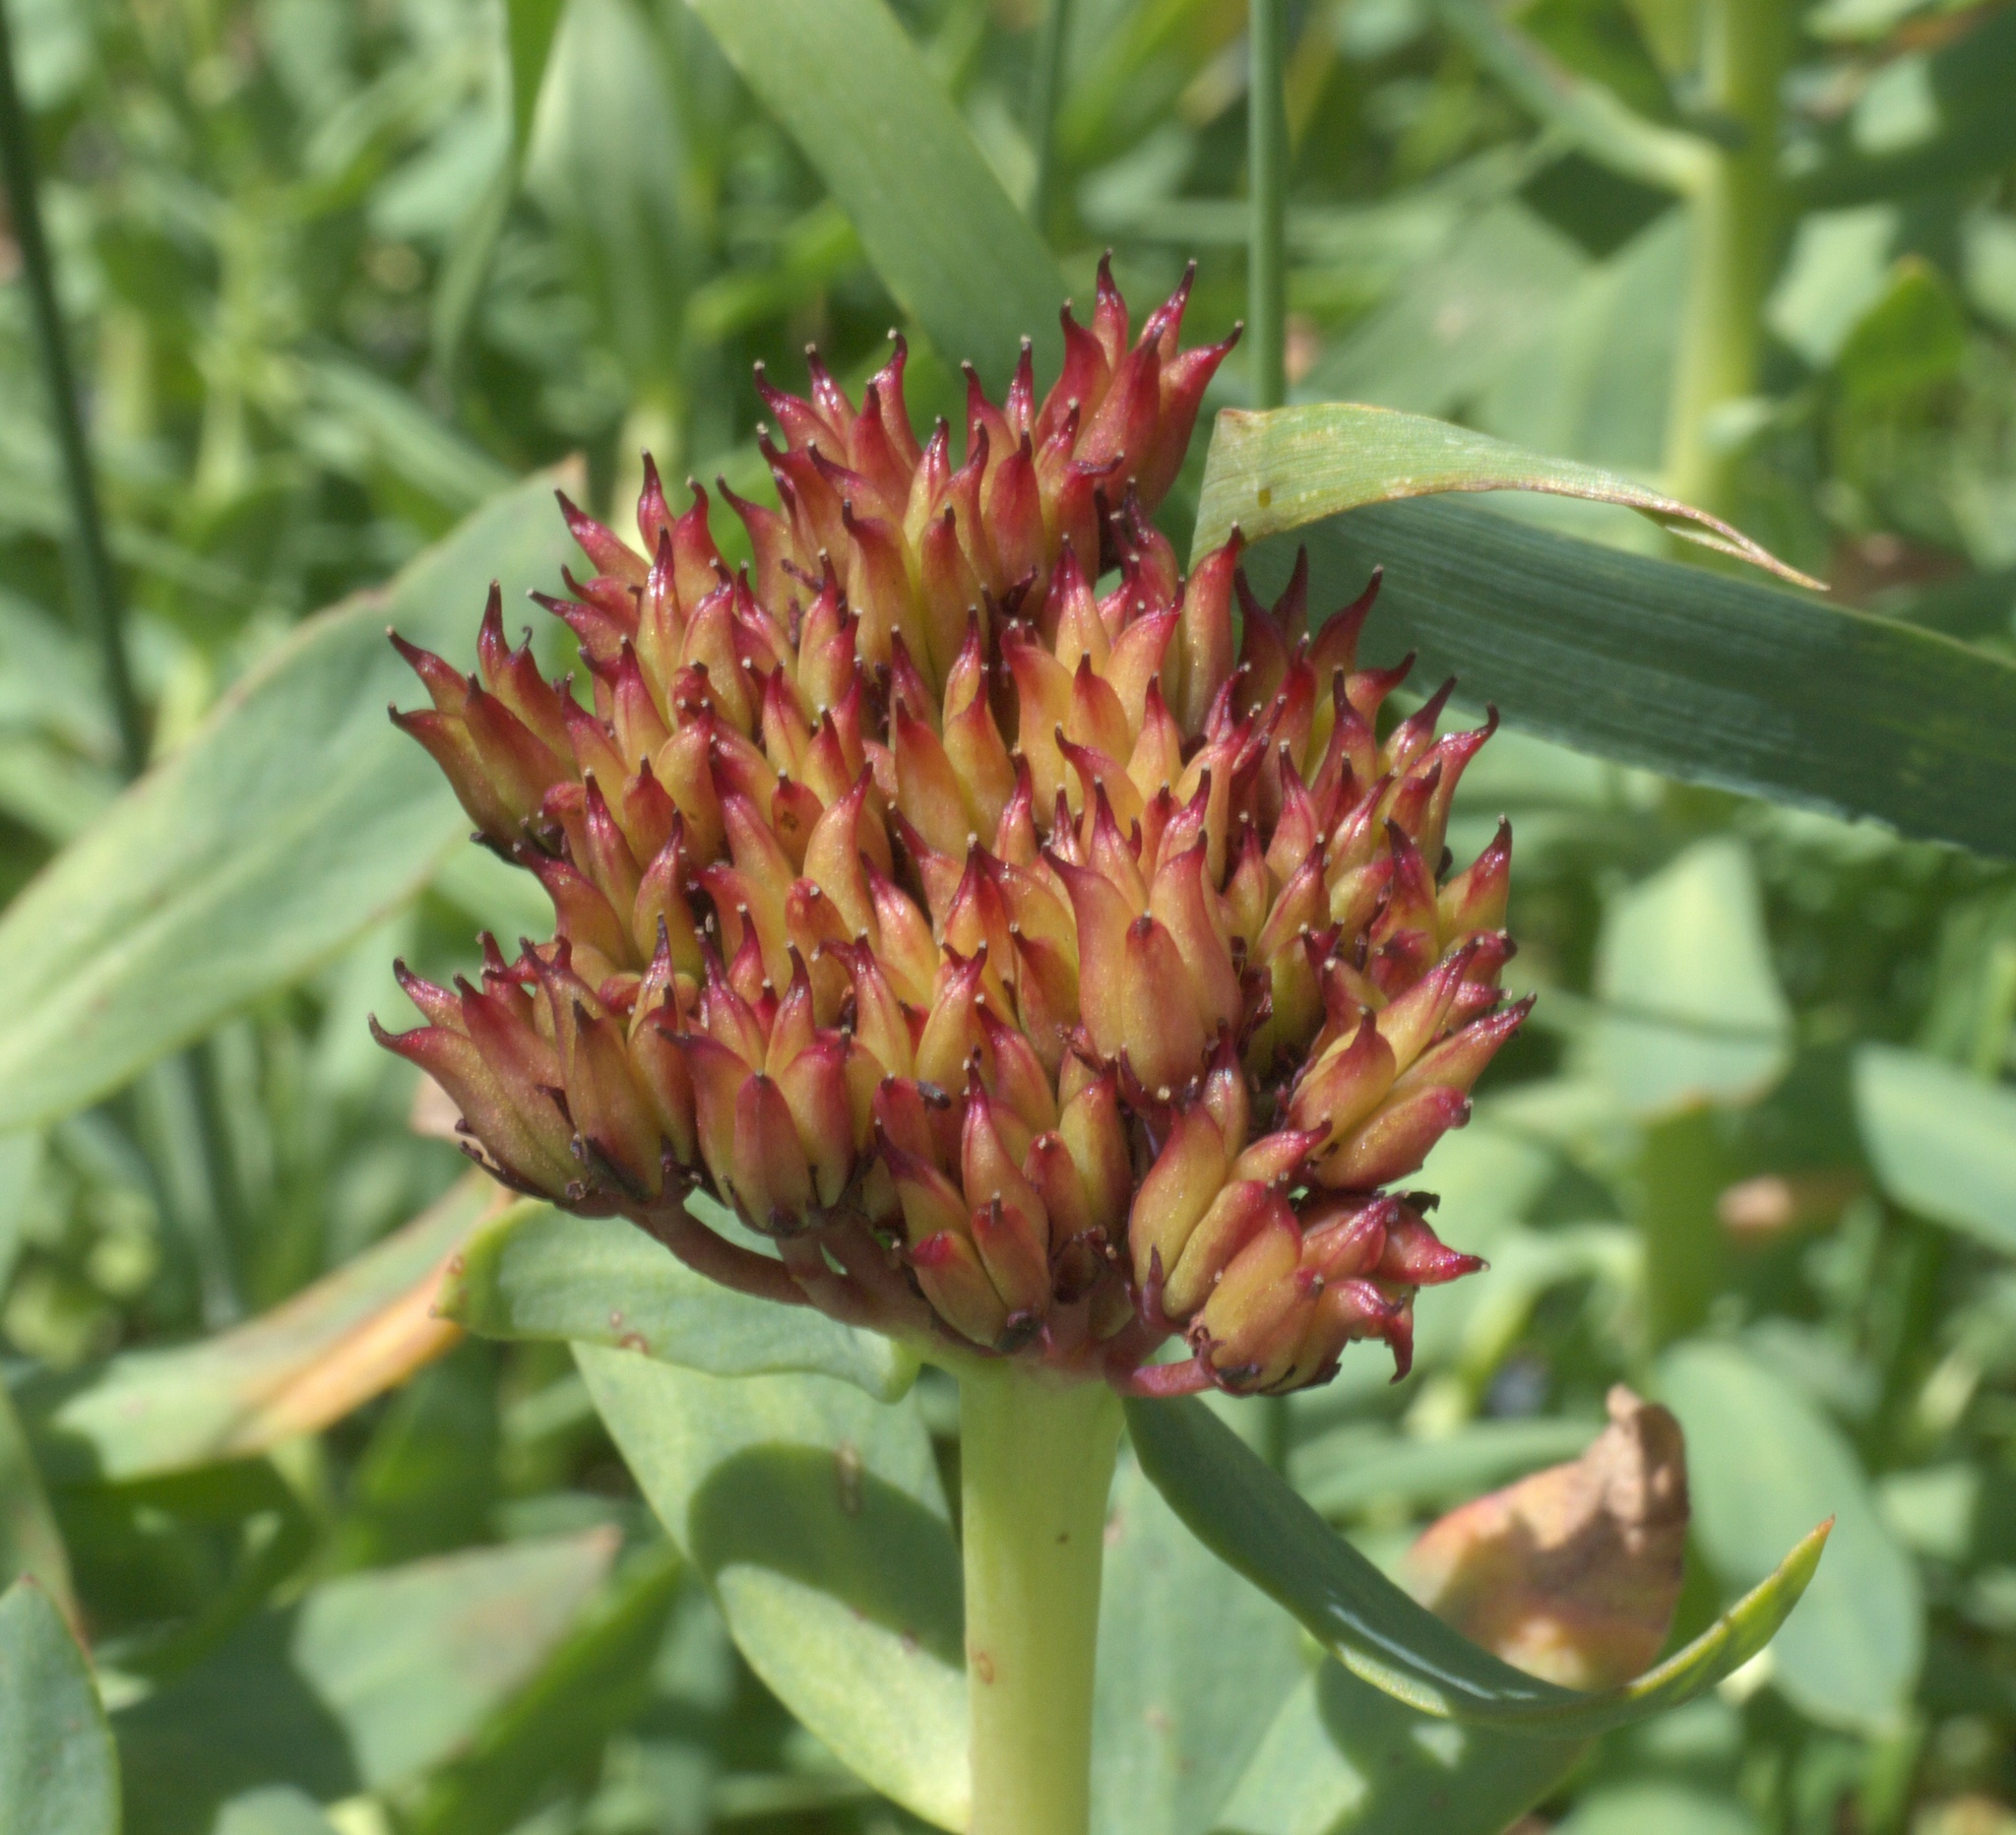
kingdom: Plantae
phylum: Tracheophyta
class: Magnoliopsida
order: Saxifragales
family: Crassulaceae
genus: Rhodiola
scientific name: Rhodiola integrifolia
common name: Western roseroot
